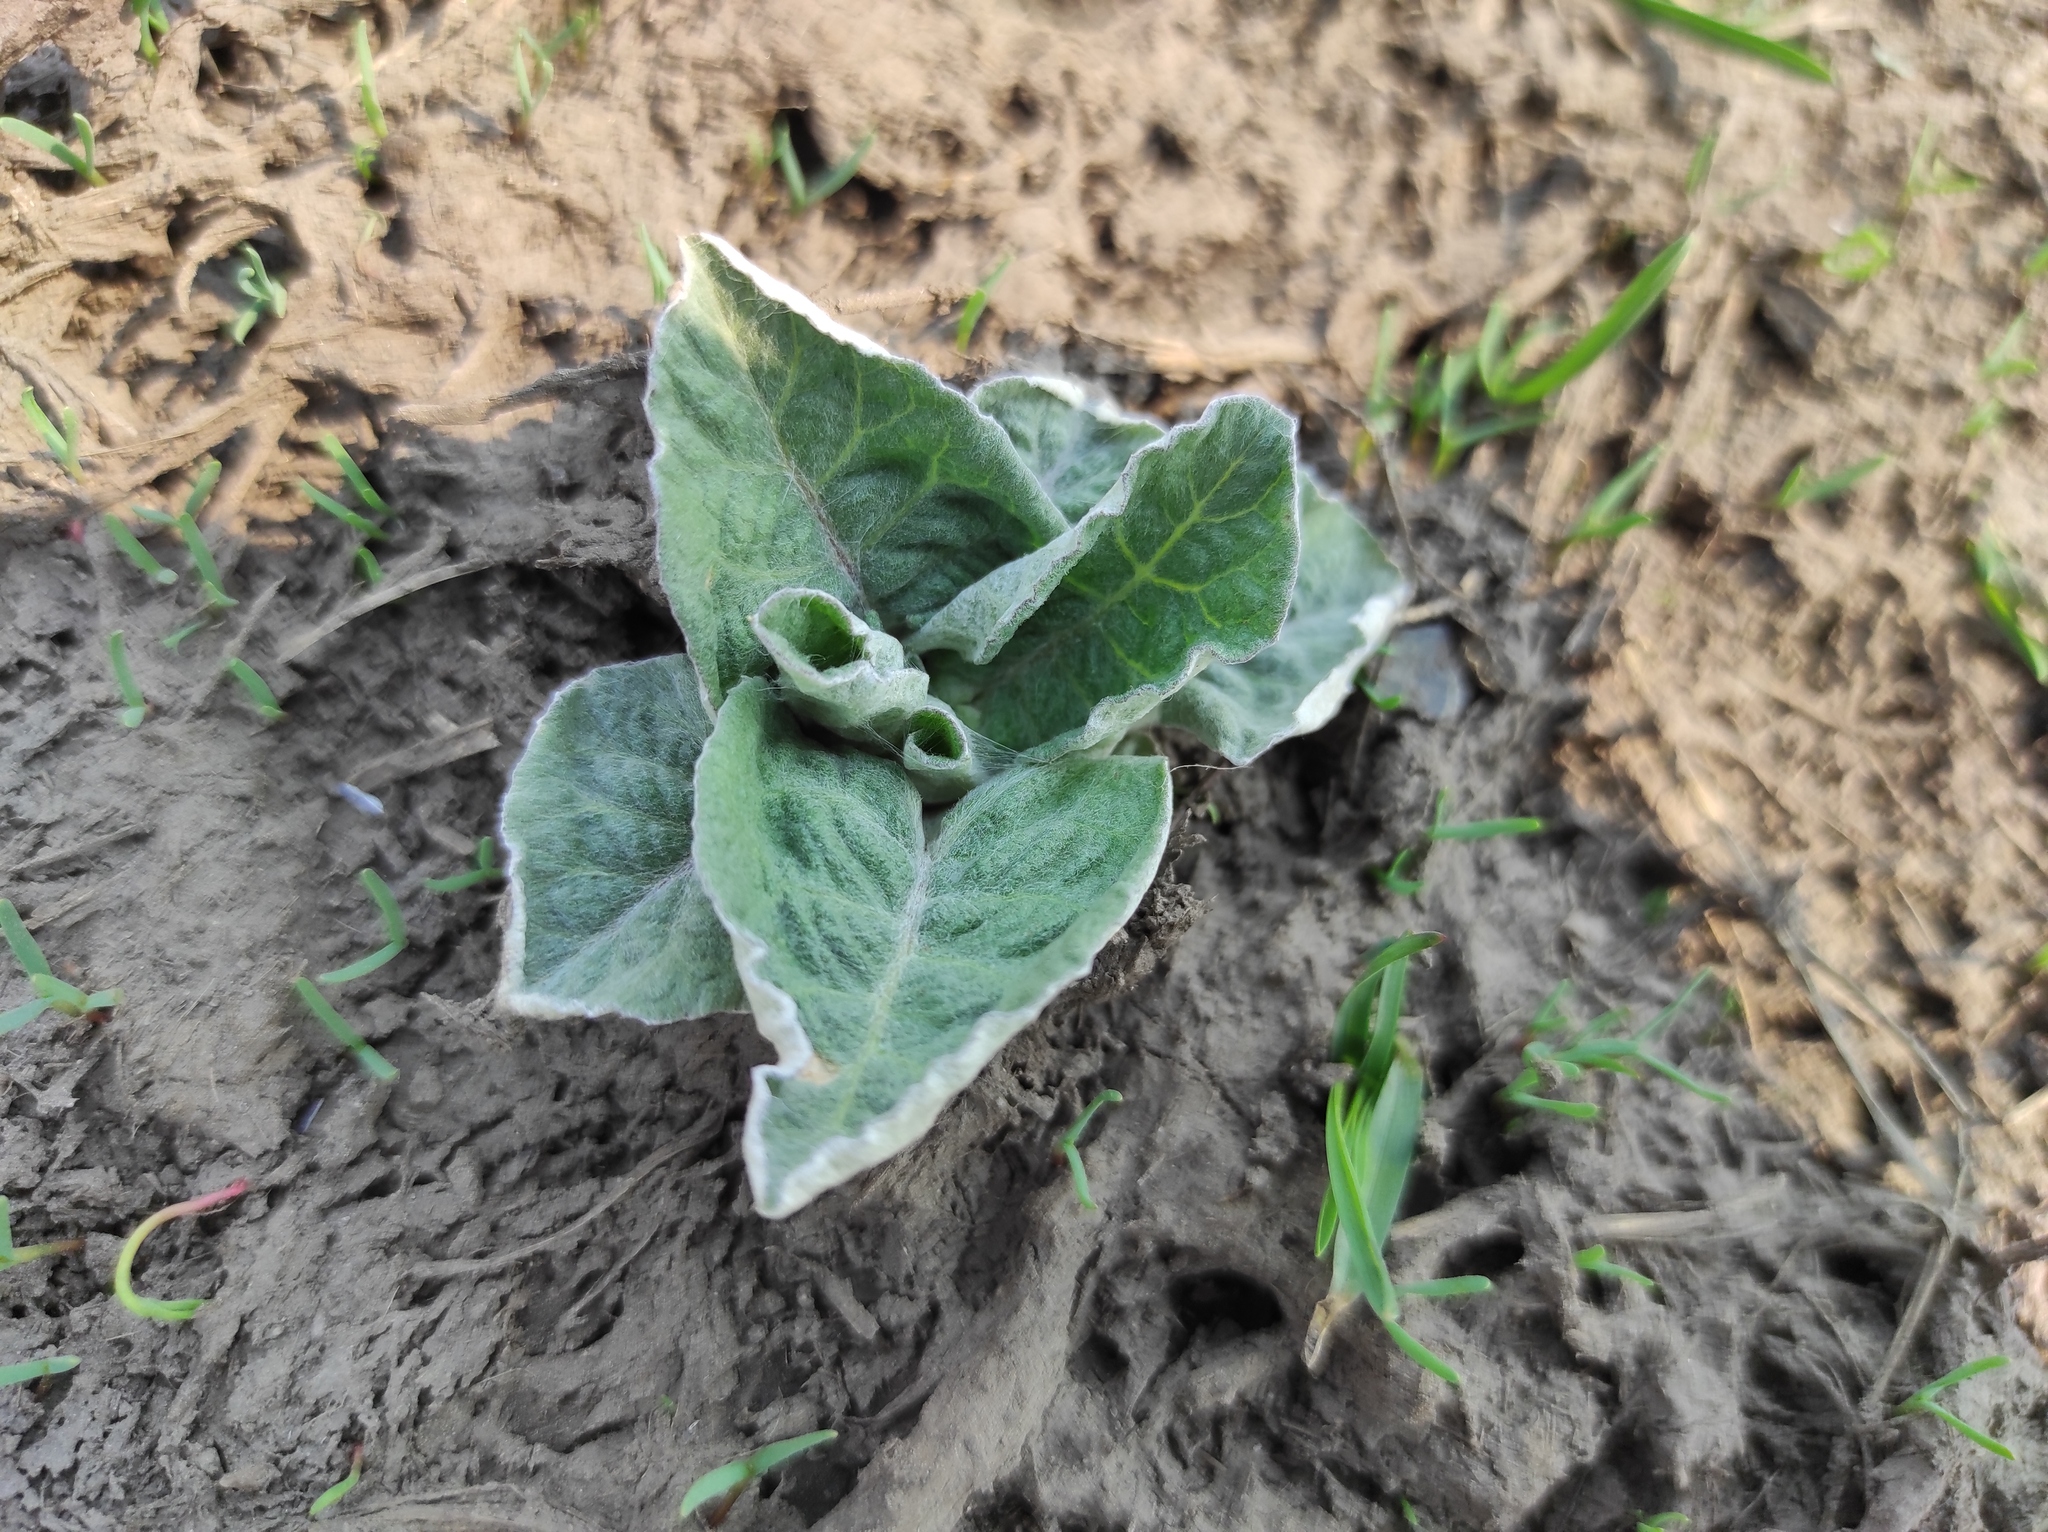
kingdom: Plantae
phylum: Tracheophyta
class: Magnoliopsida
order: Asterales
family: Asteraceae
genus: Arctium
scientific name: Arctium
